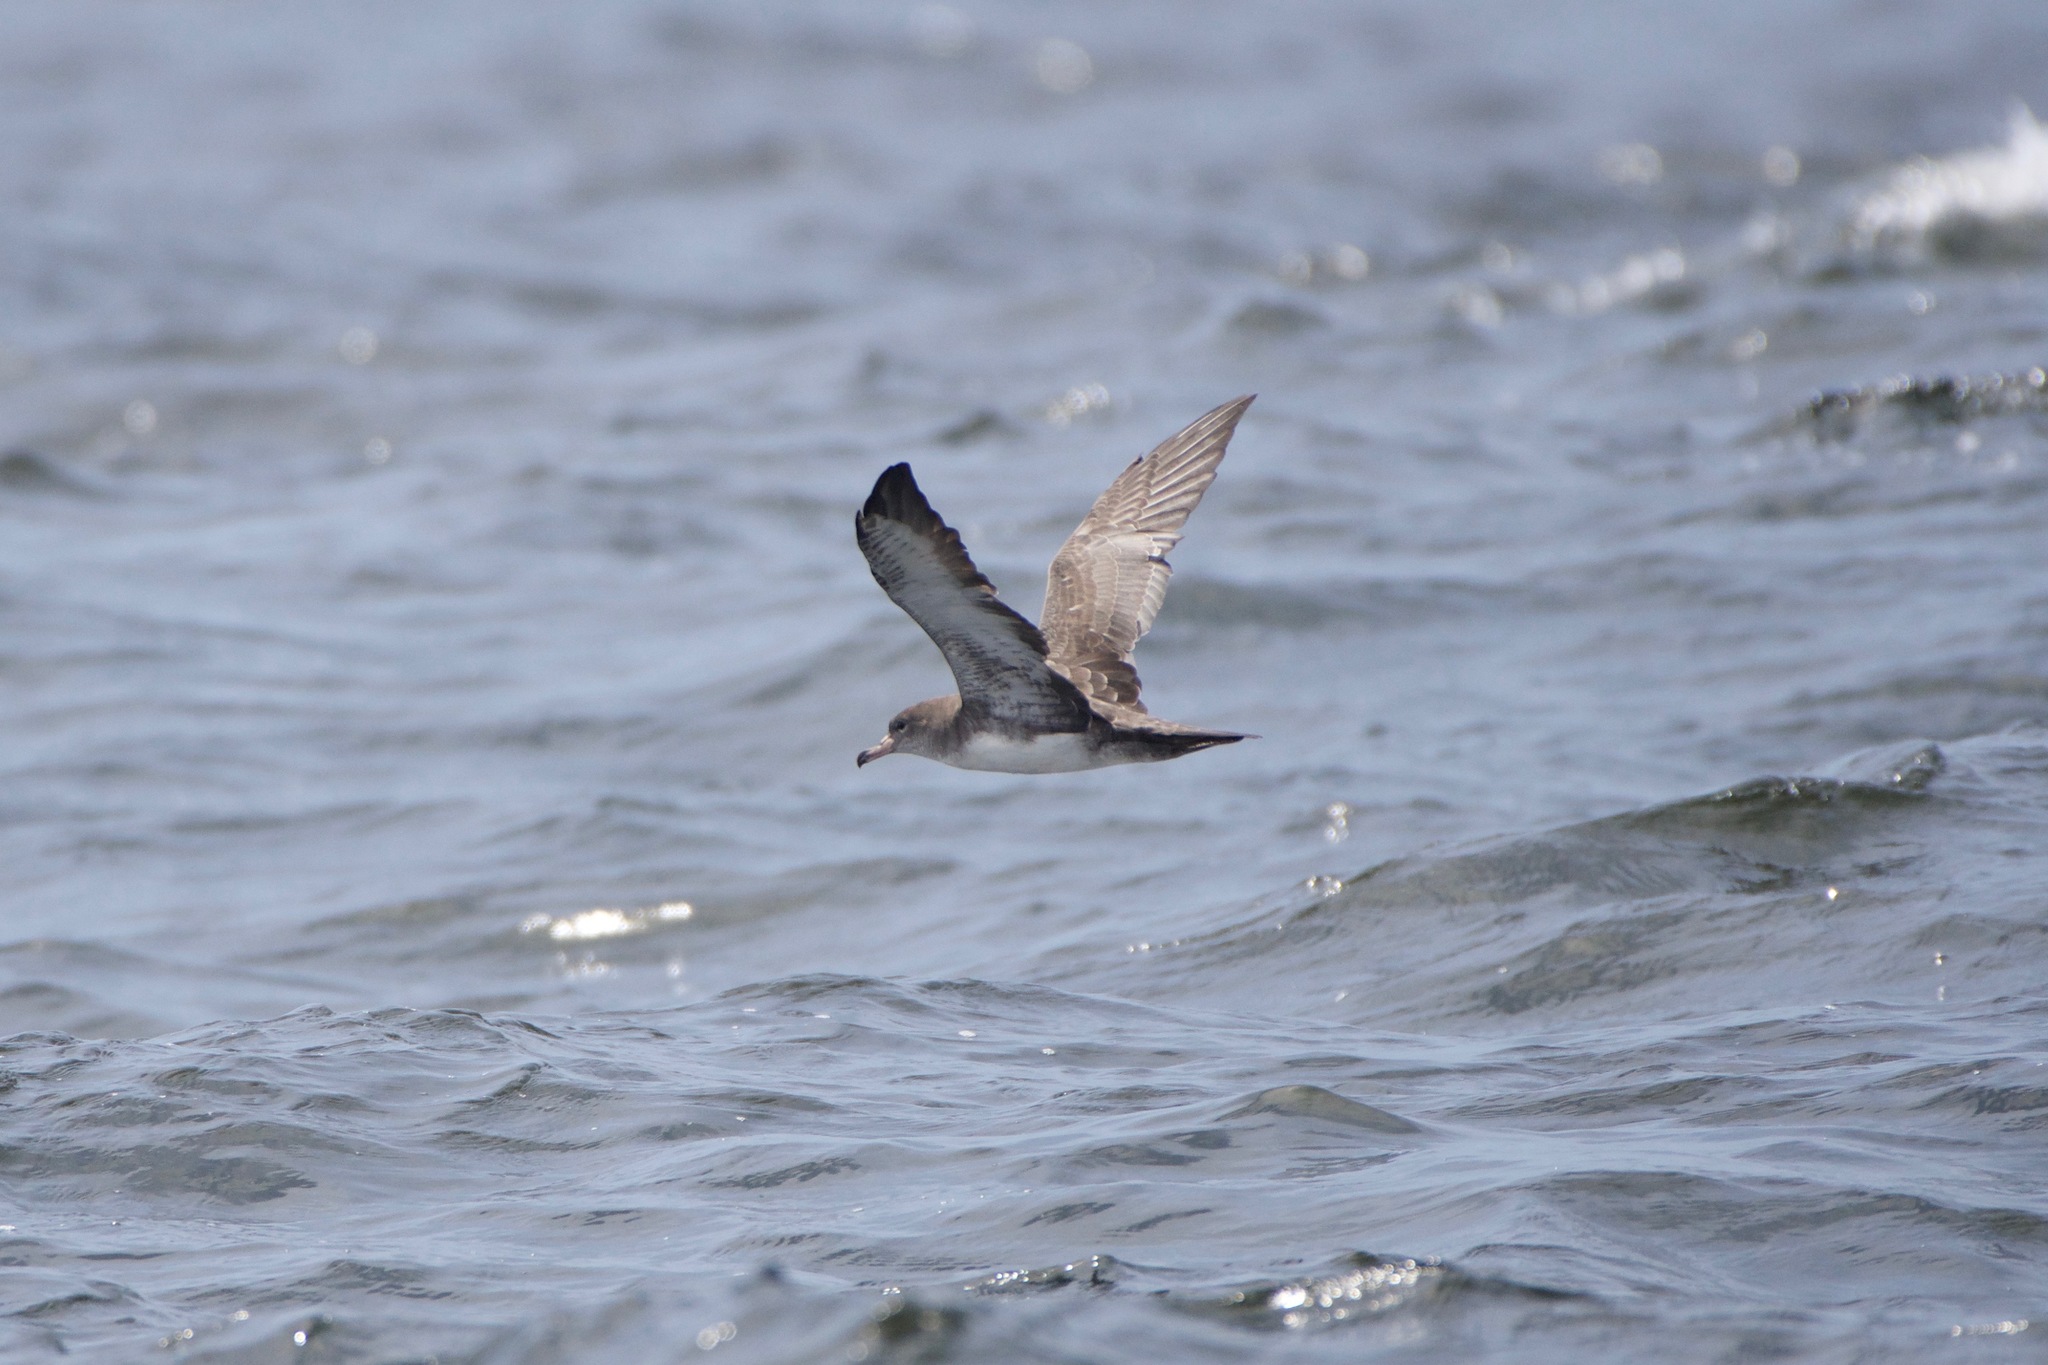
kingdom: Animalia
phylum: Chordata
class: Aves
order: Procellariiformes
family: Procellariidae
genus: Puffinus
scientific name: Puffinus creatopus
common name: Pink-footed shearwater
